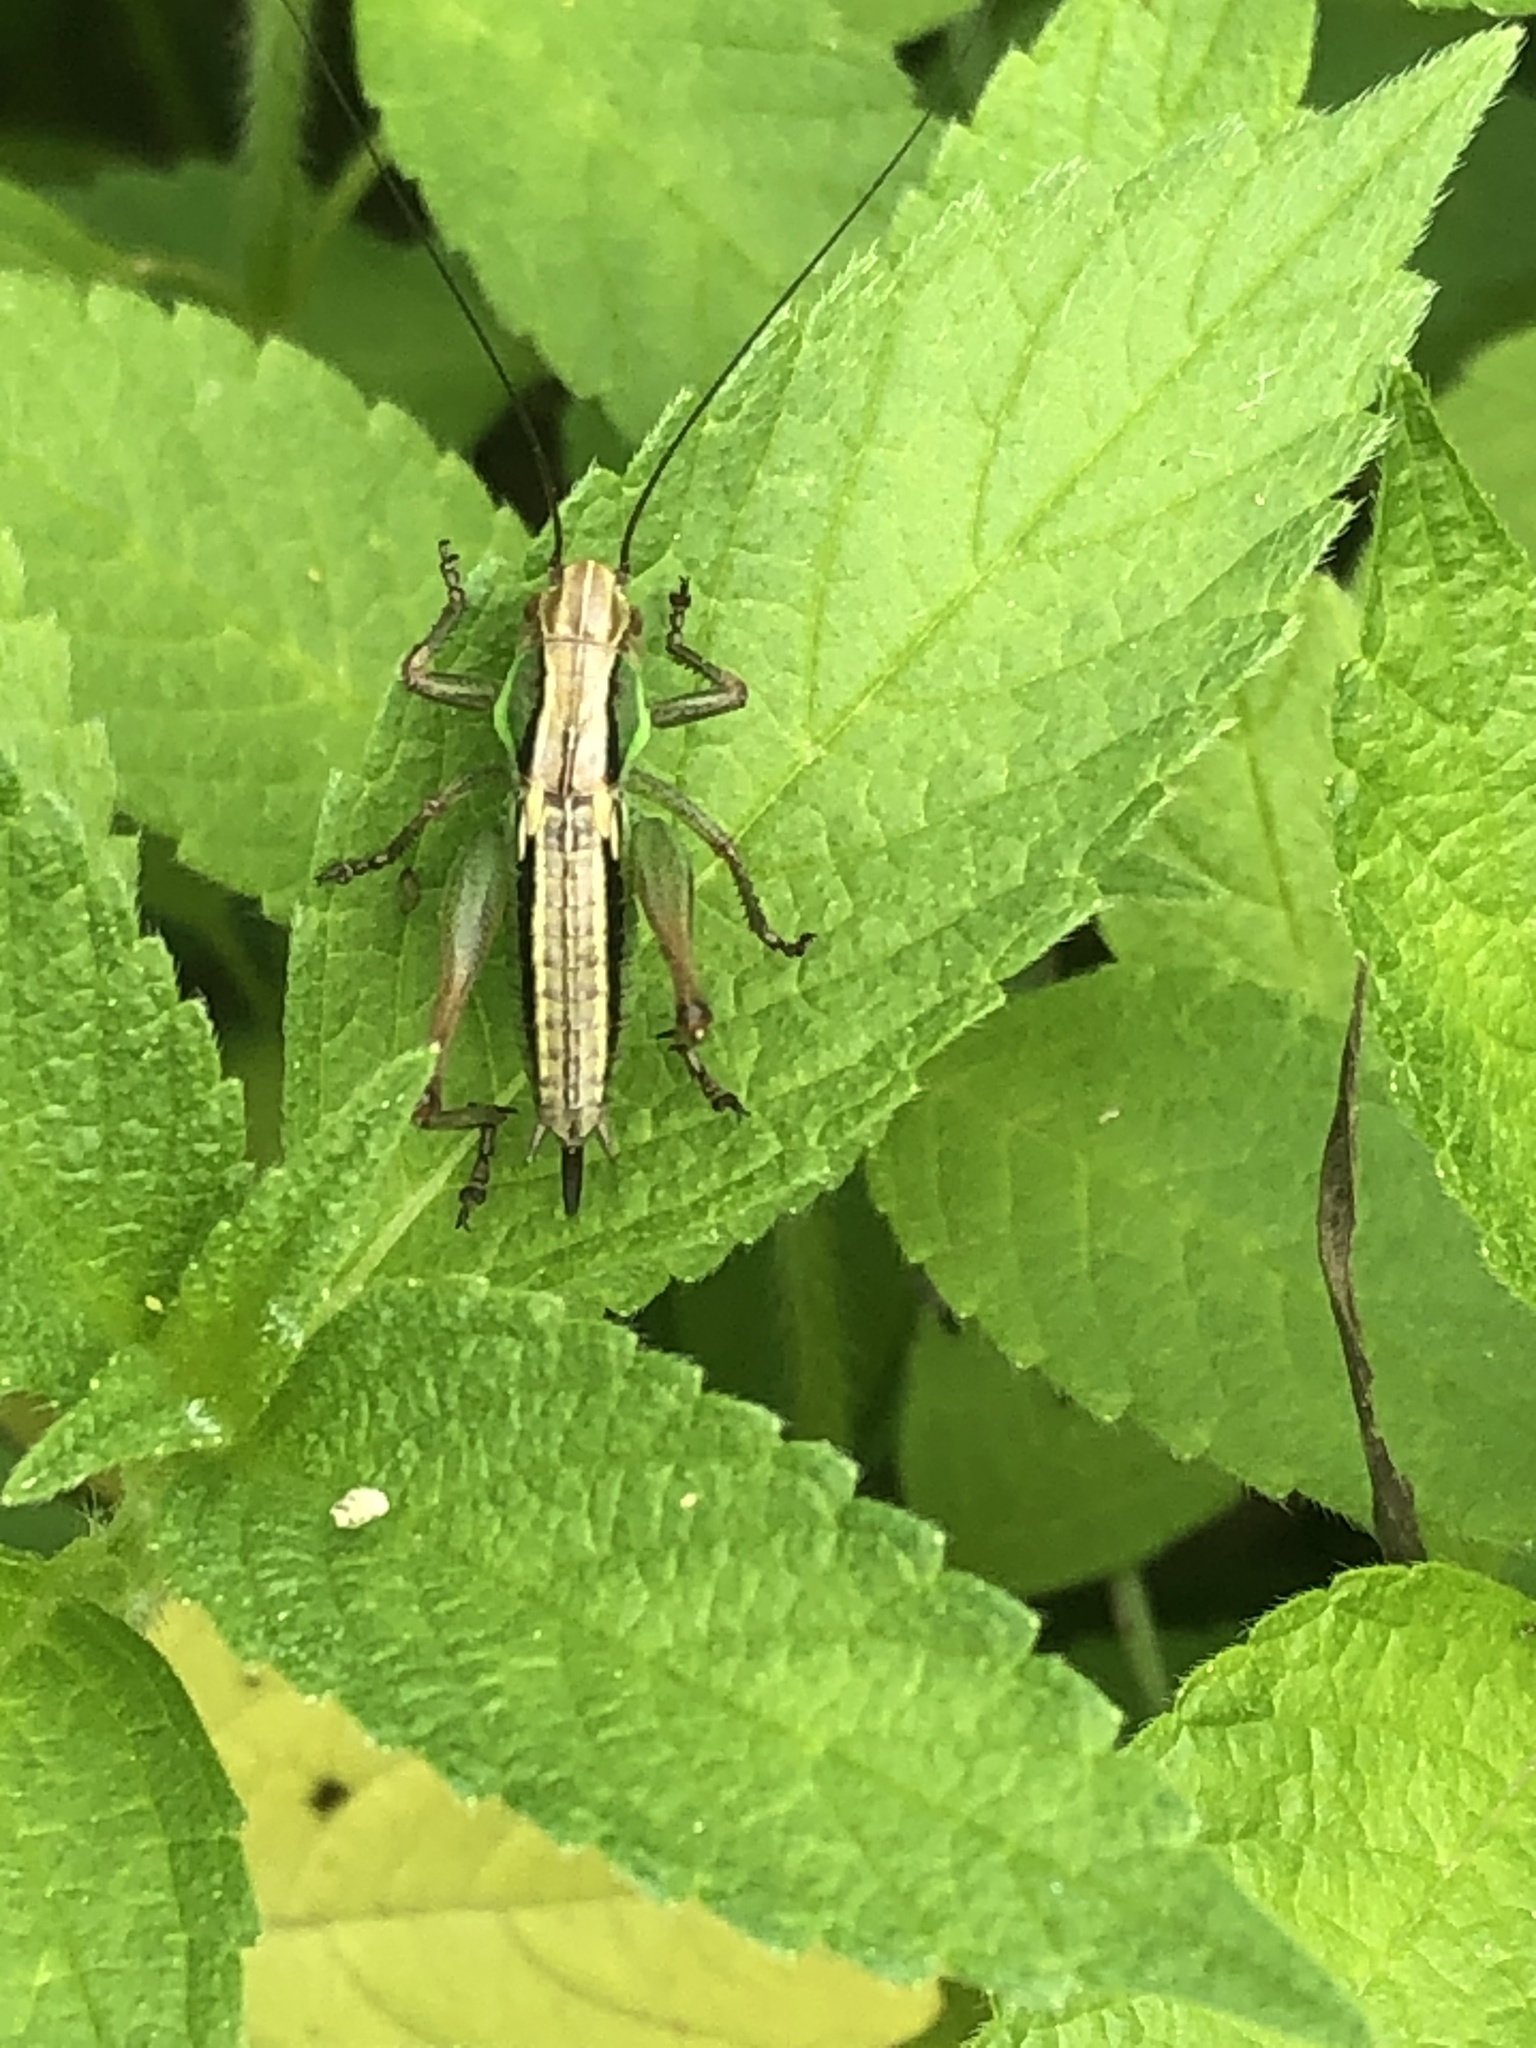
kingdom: Animalia
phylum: Arthropoda
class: Insecta
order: Orthoptera
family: Tettigoniidae
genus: Roeseliana
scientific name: Roeseliana roeselii
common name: Roesel's bush cricket
